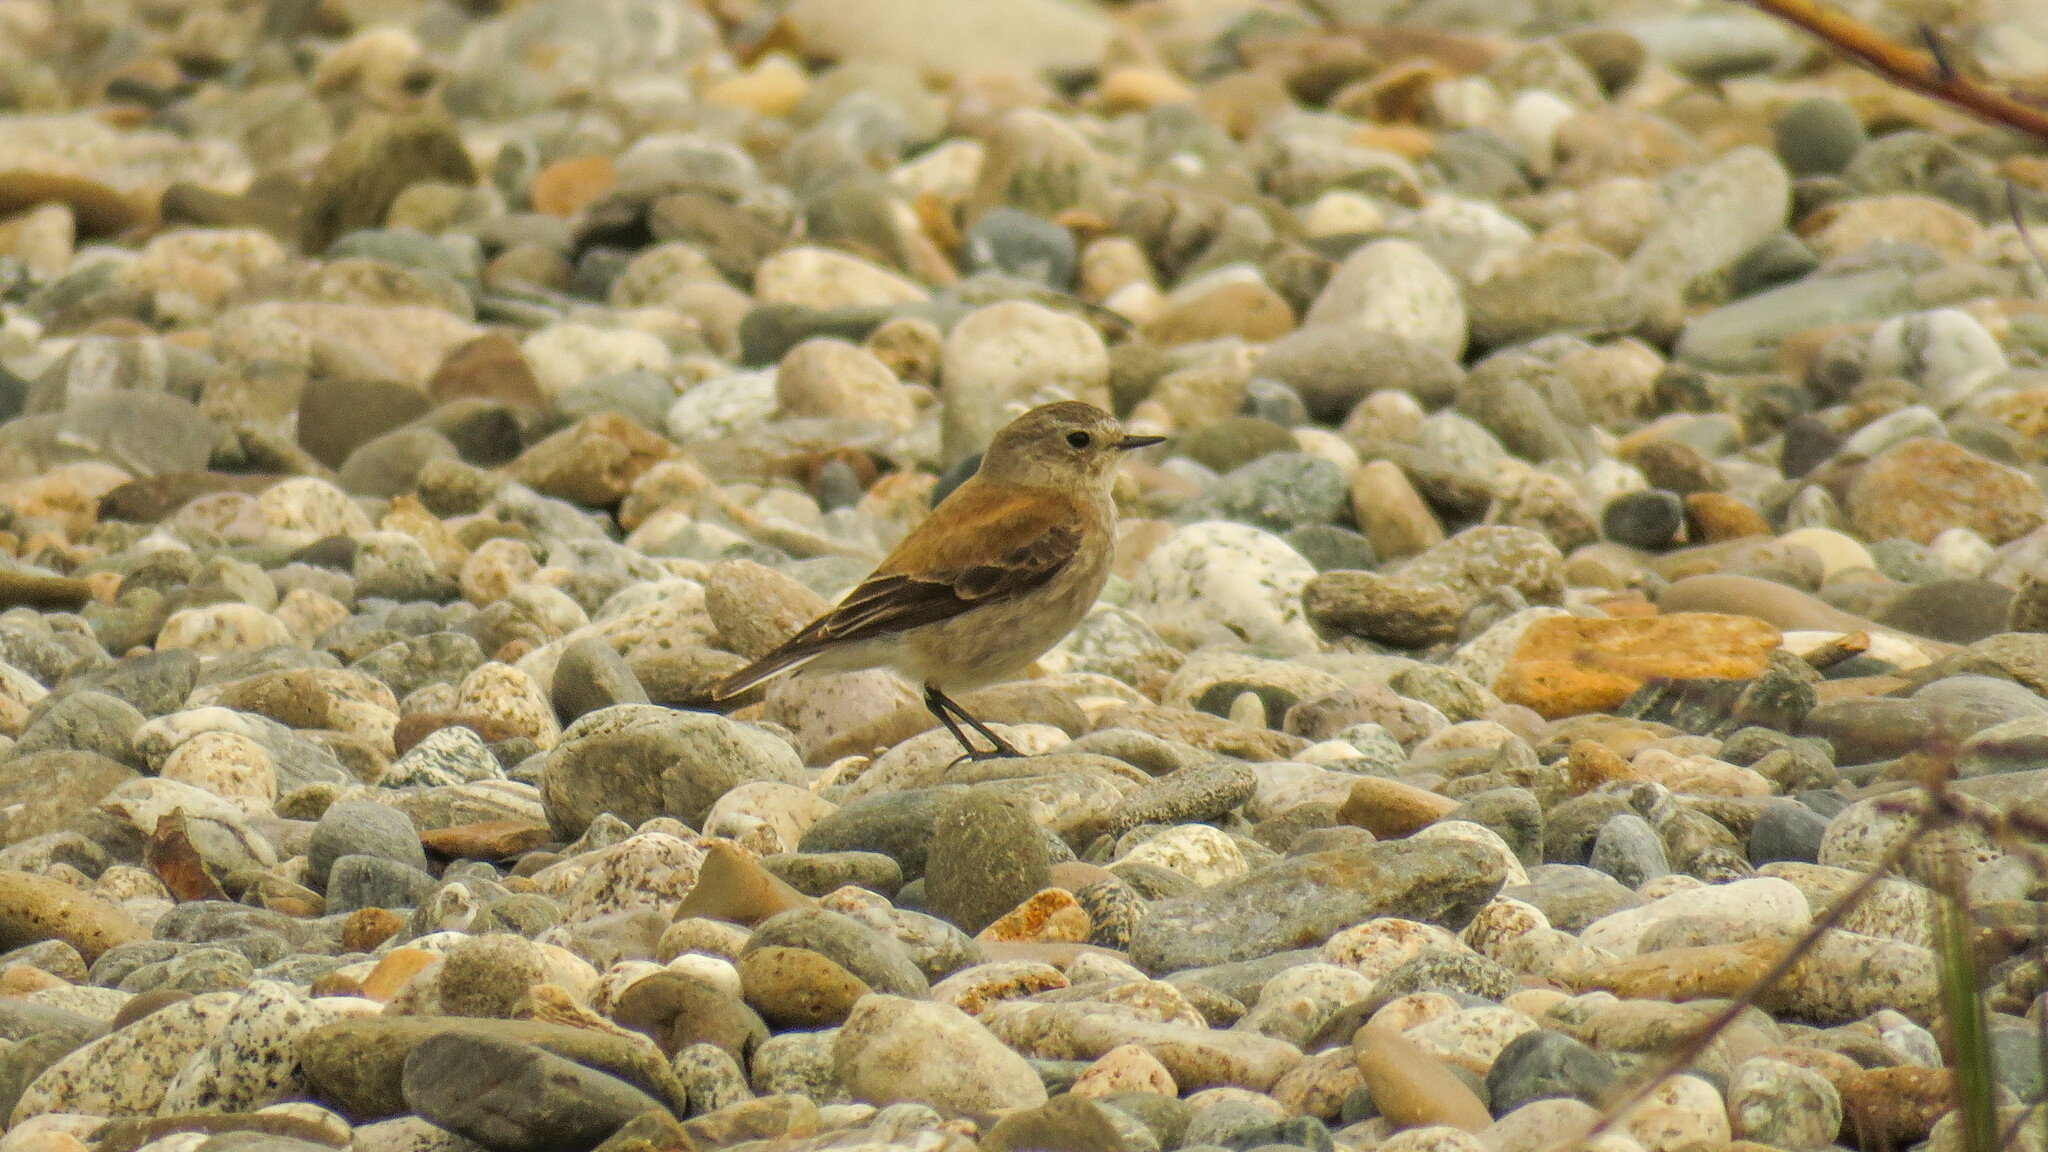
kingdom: Animalia
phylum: Chordata
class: Aves
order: Passeriformes
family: Tyrannidae
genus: Lessonia
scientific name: Lessonia rufa
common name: Austral negrito
